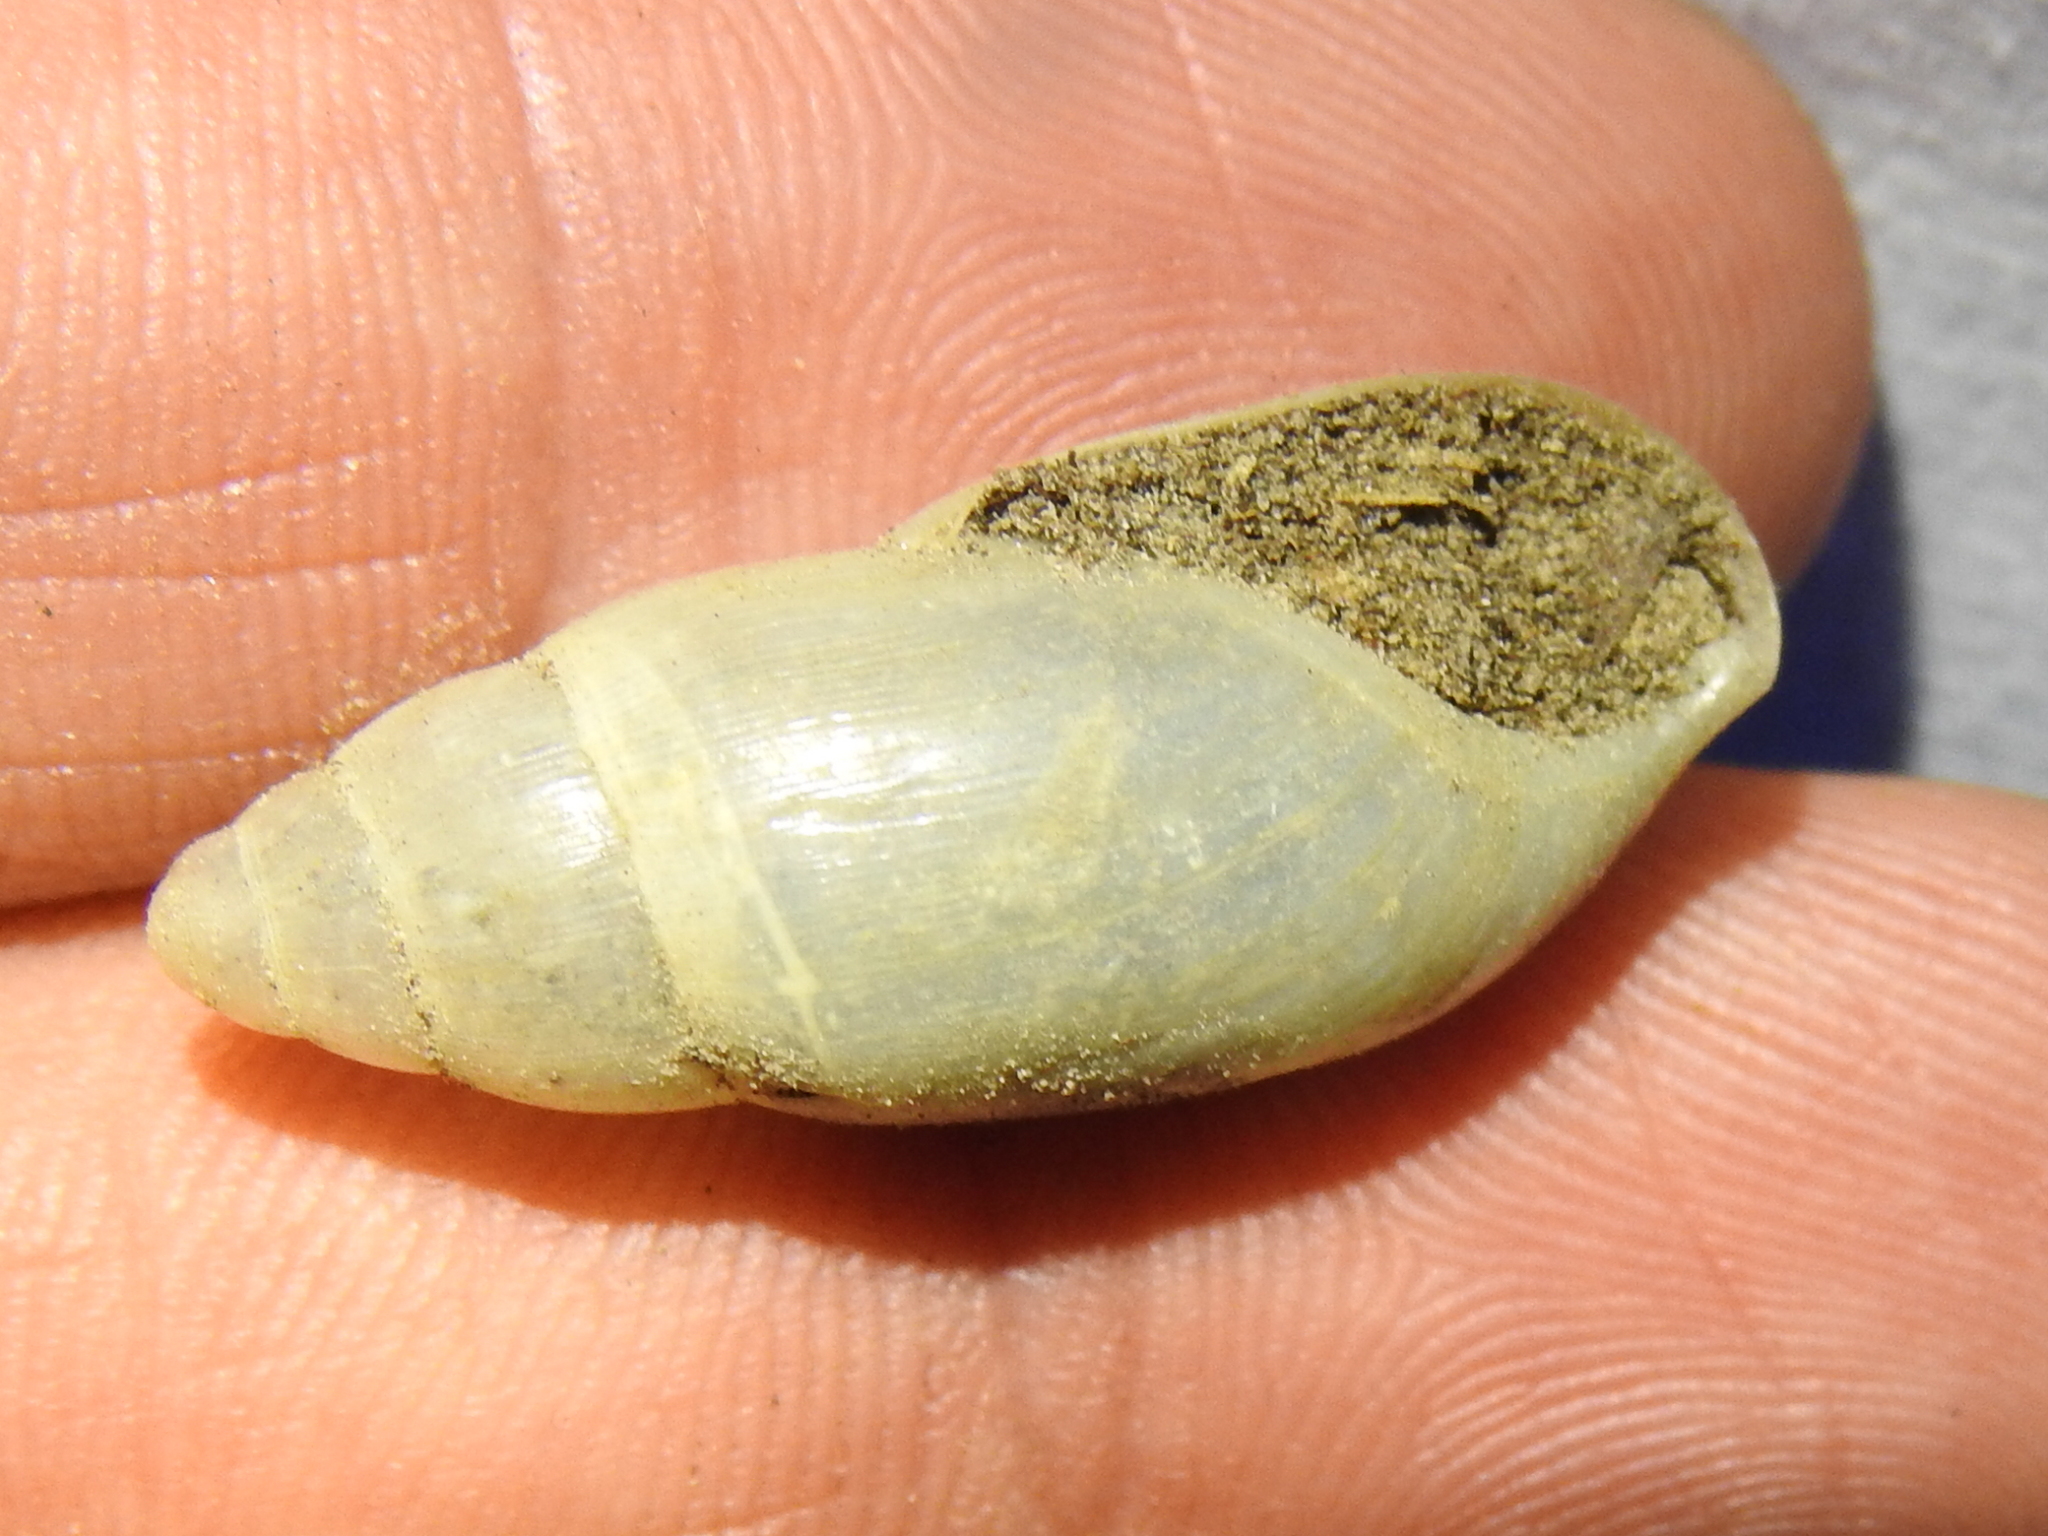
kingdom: Animalia
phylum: Mollusca
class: Gastropoda
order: Stylommatophora
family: Spiraxidae
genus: Euglandina
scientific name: Euglandina texasiana
